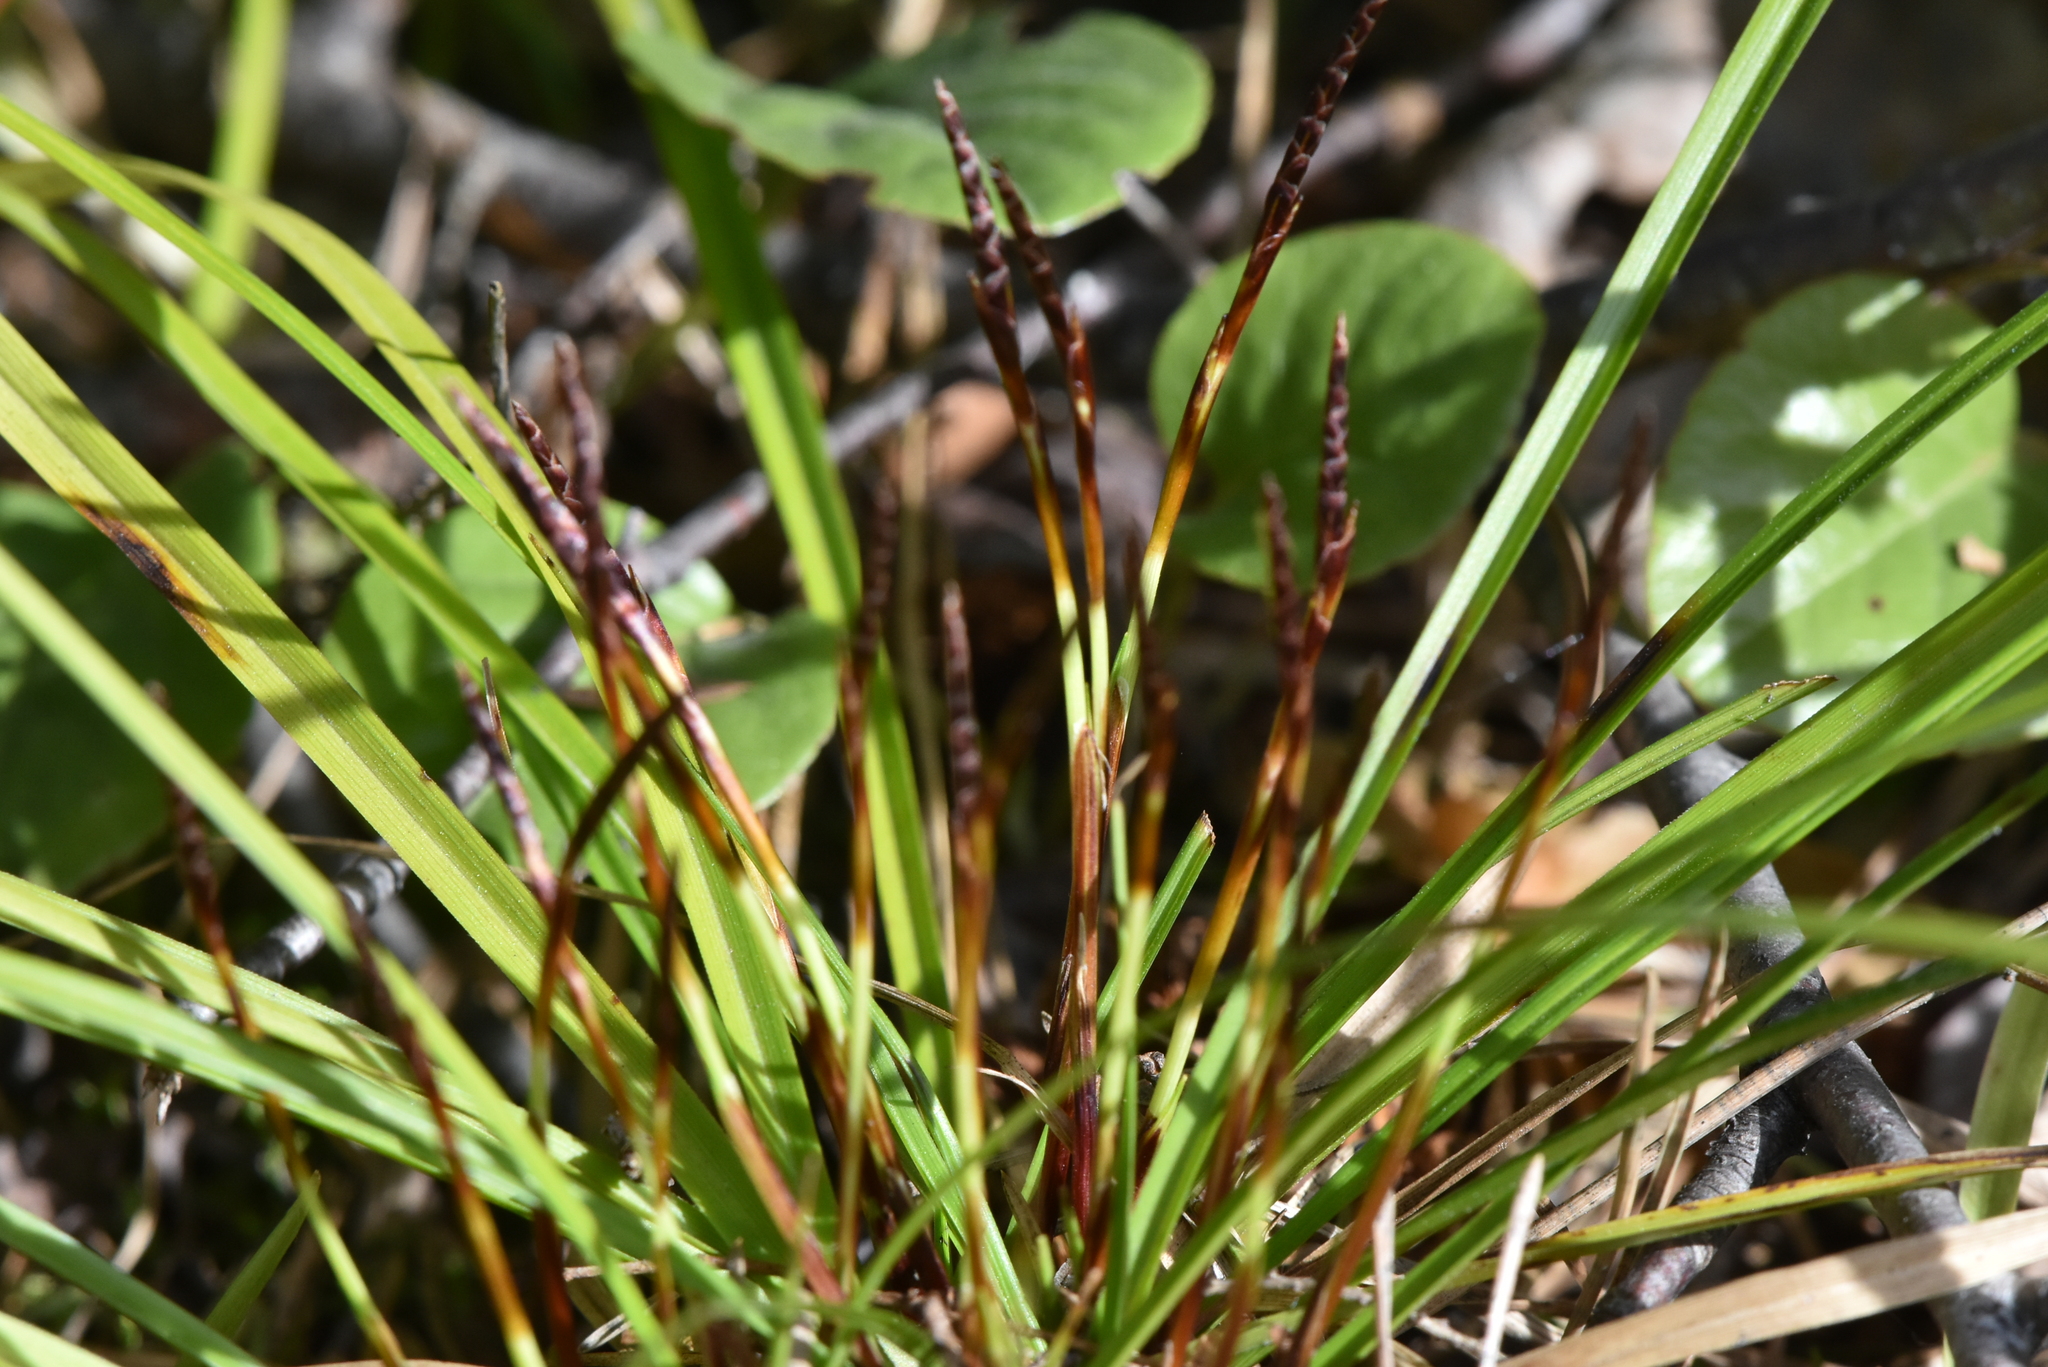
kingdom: Plantae
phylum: Tracheophyta
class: Liliopsida
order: Poales
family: Cyperaceae
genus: Carex
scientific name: Carex digitata
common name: Fingered sedge
